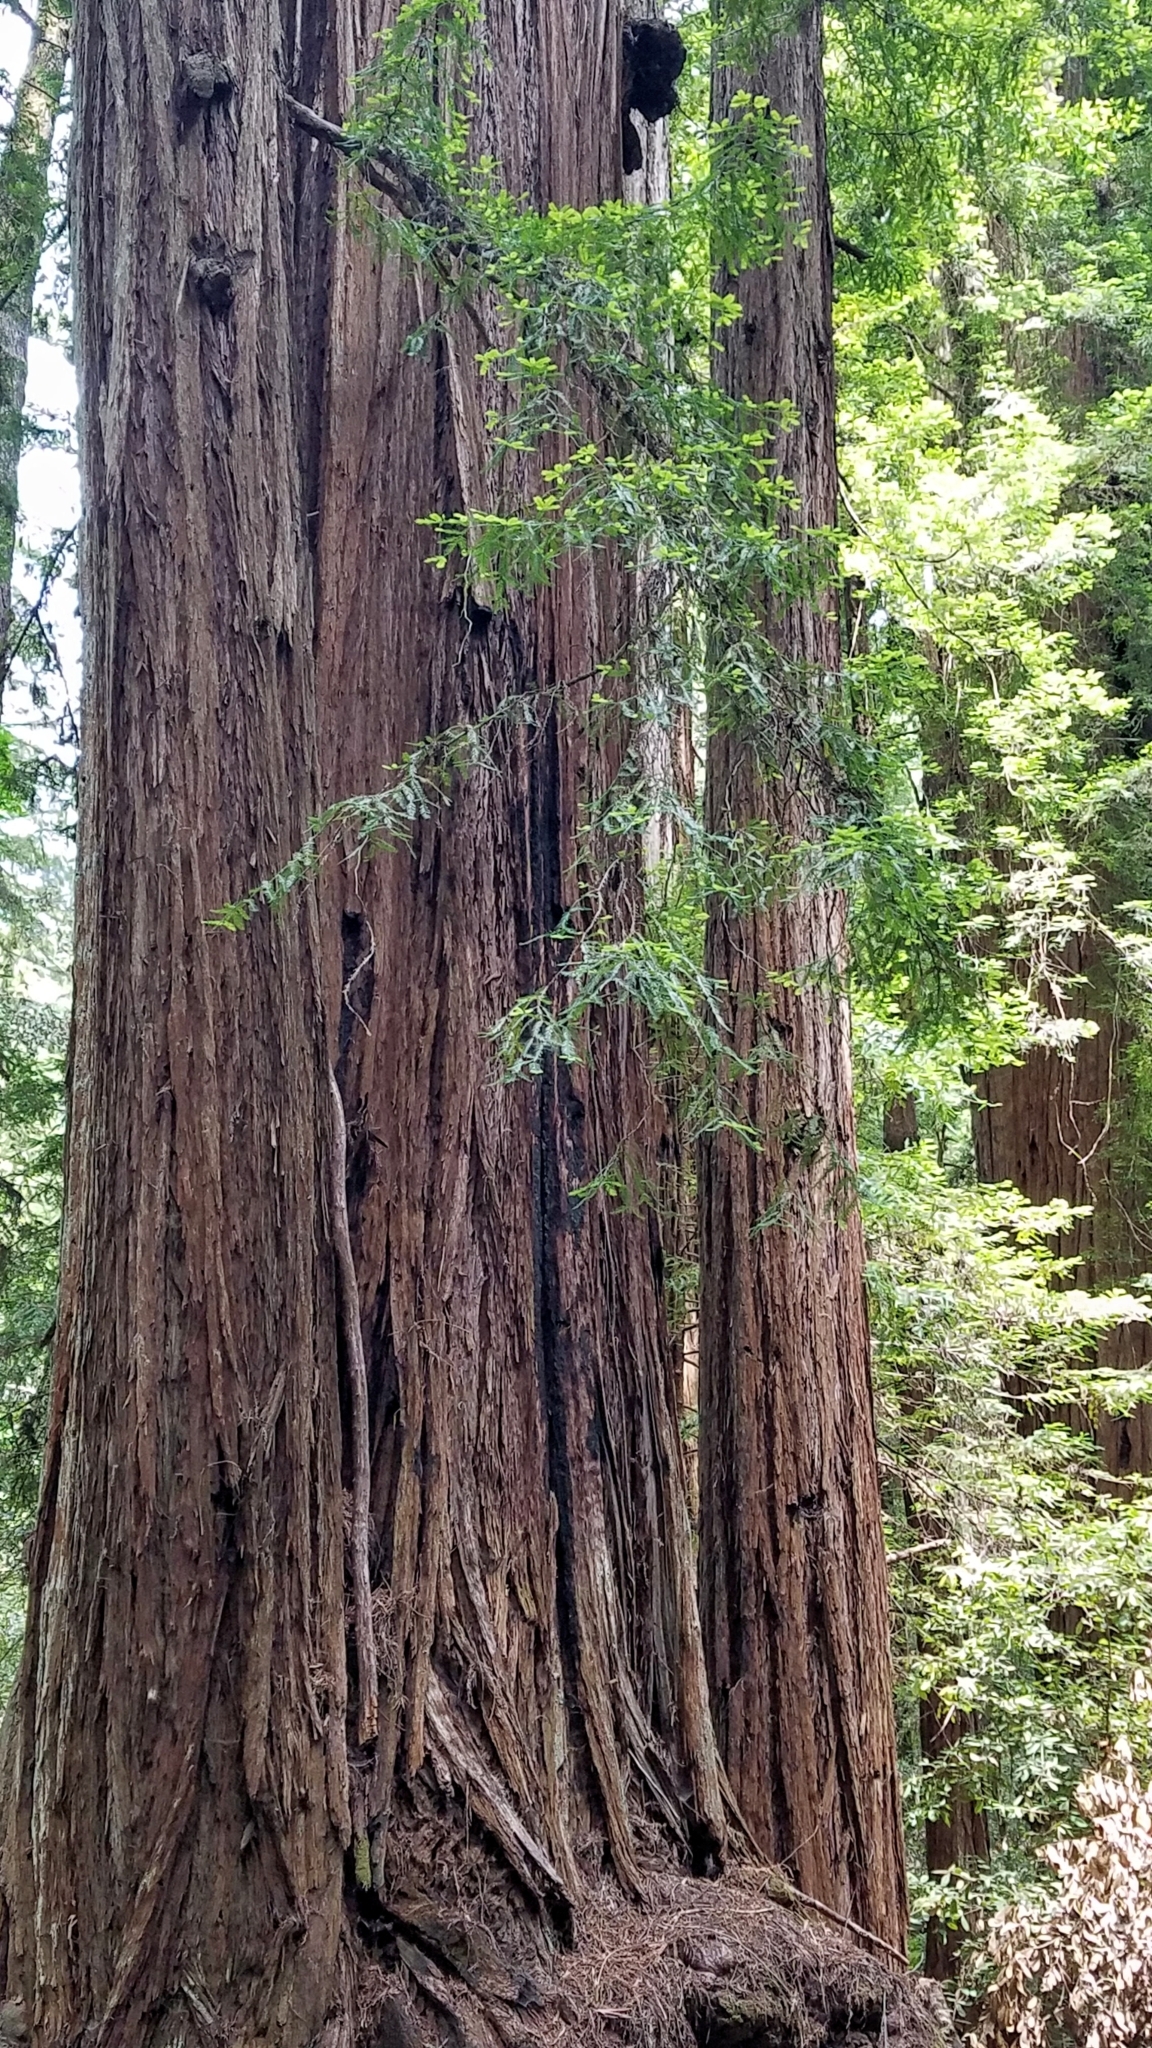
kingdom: Plantae
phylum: Tracheophyta
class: Pinopsida
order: Pinales
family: Cupressaceae
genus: Sequoia
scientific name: Sequoia sempervirens
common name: Coast redwood
